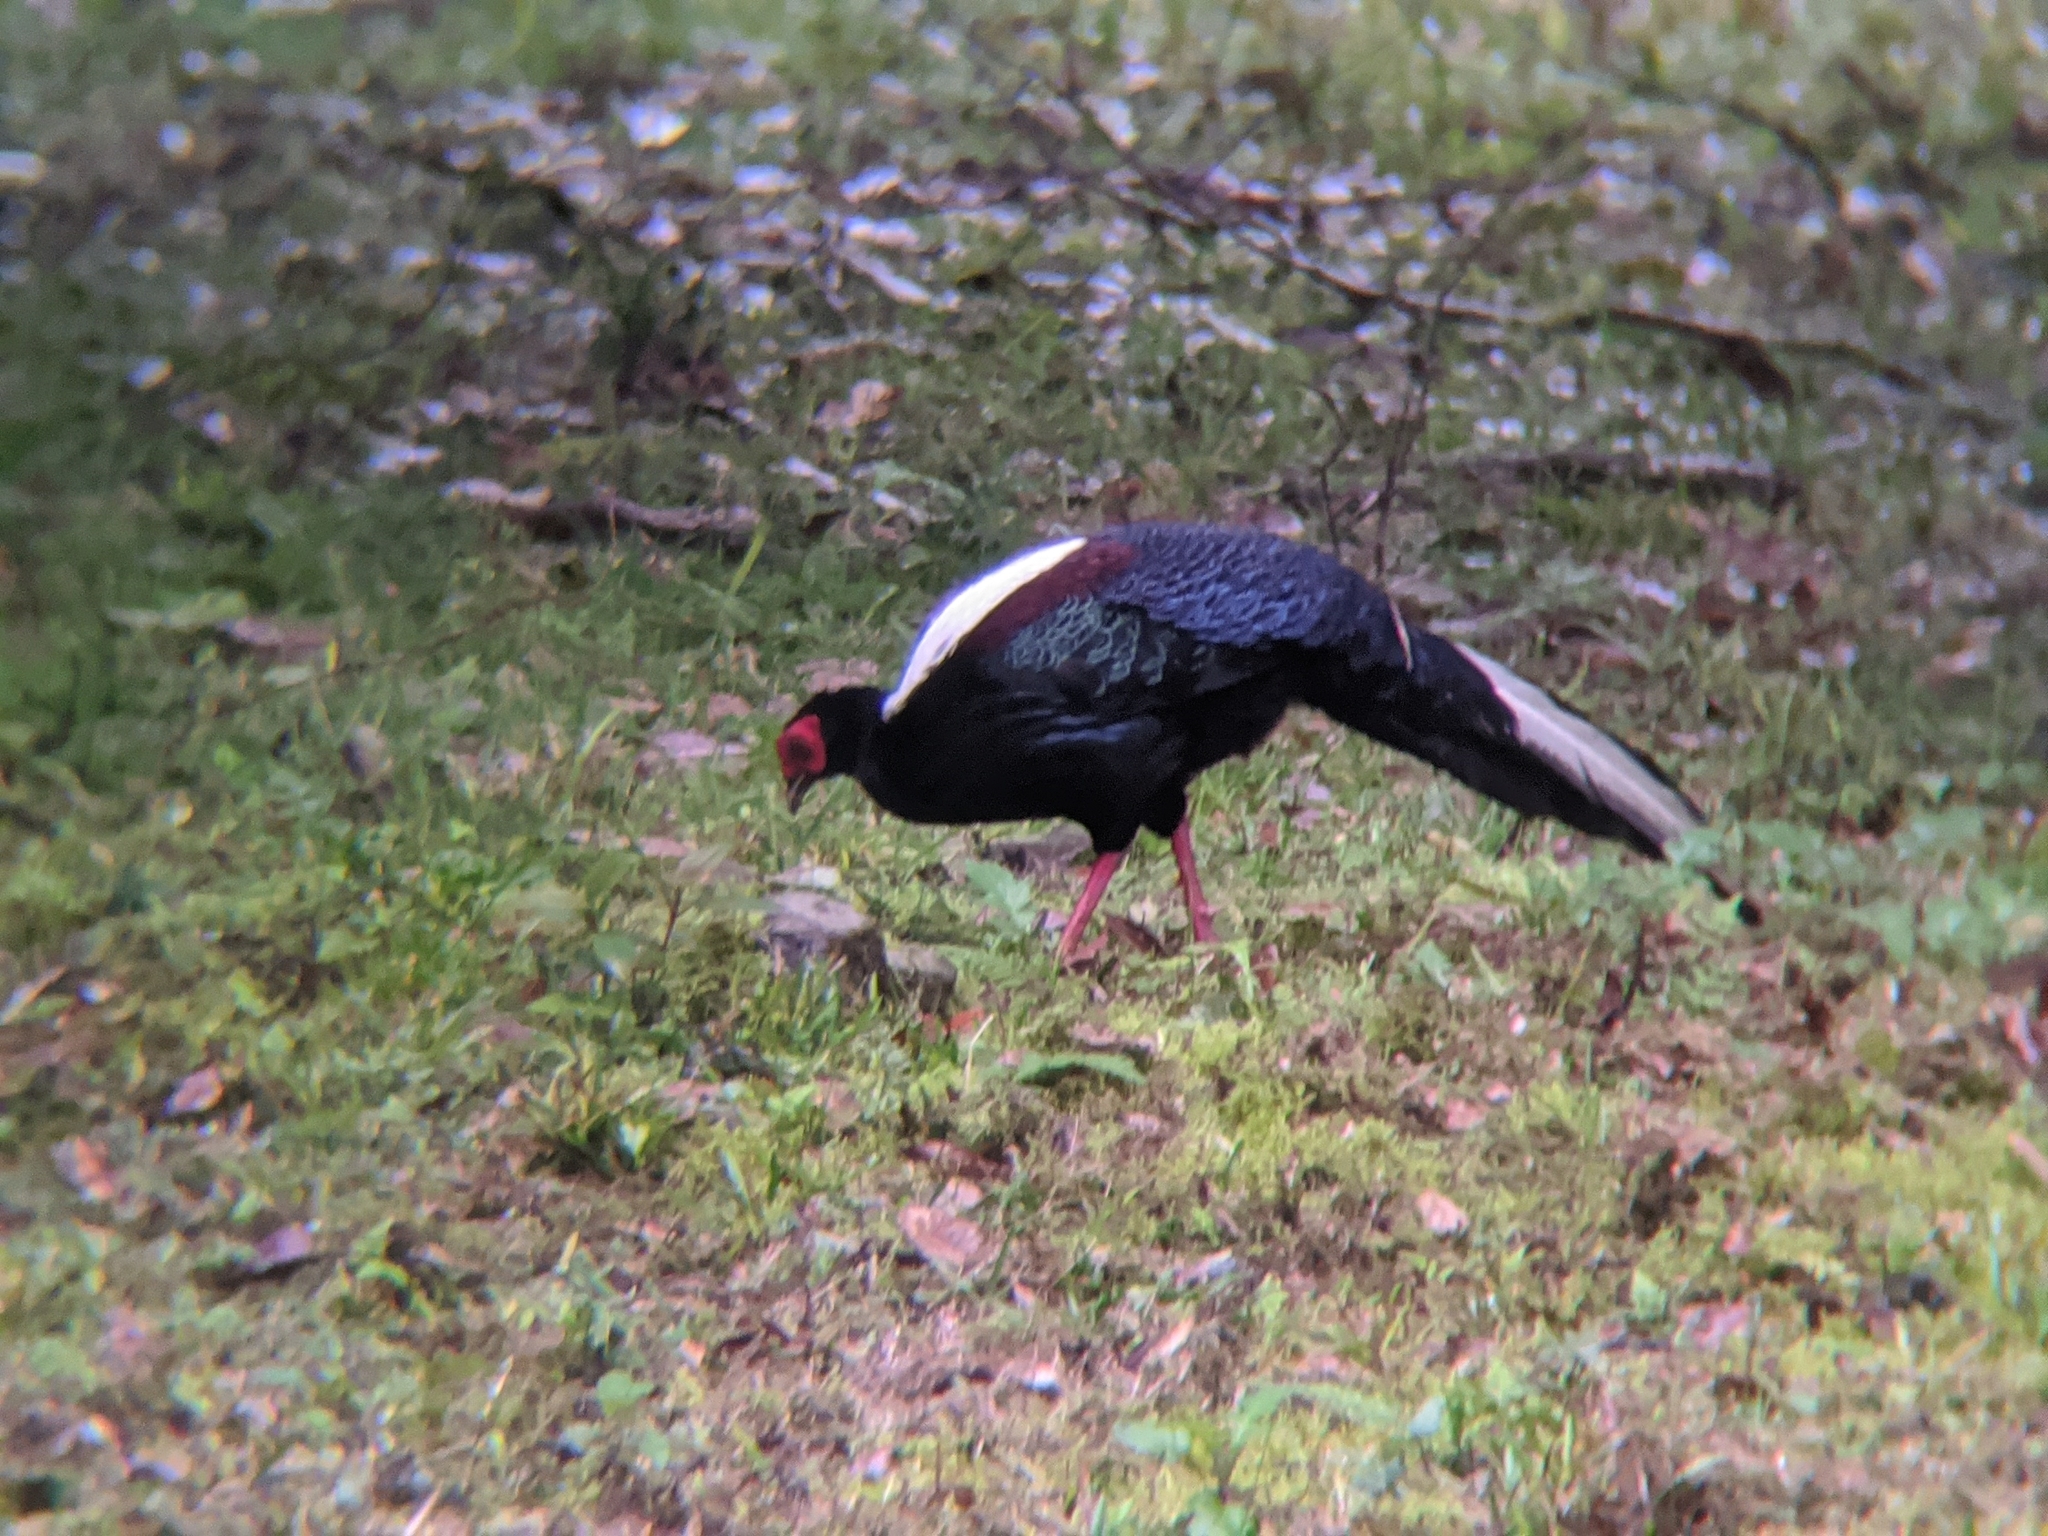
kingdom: Animalia
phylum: Chordata
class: Aves
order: Galliformes
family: Phasianidae
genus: Lophura
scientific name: Lophura swinhoii
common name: Swinhoe's pheasant
